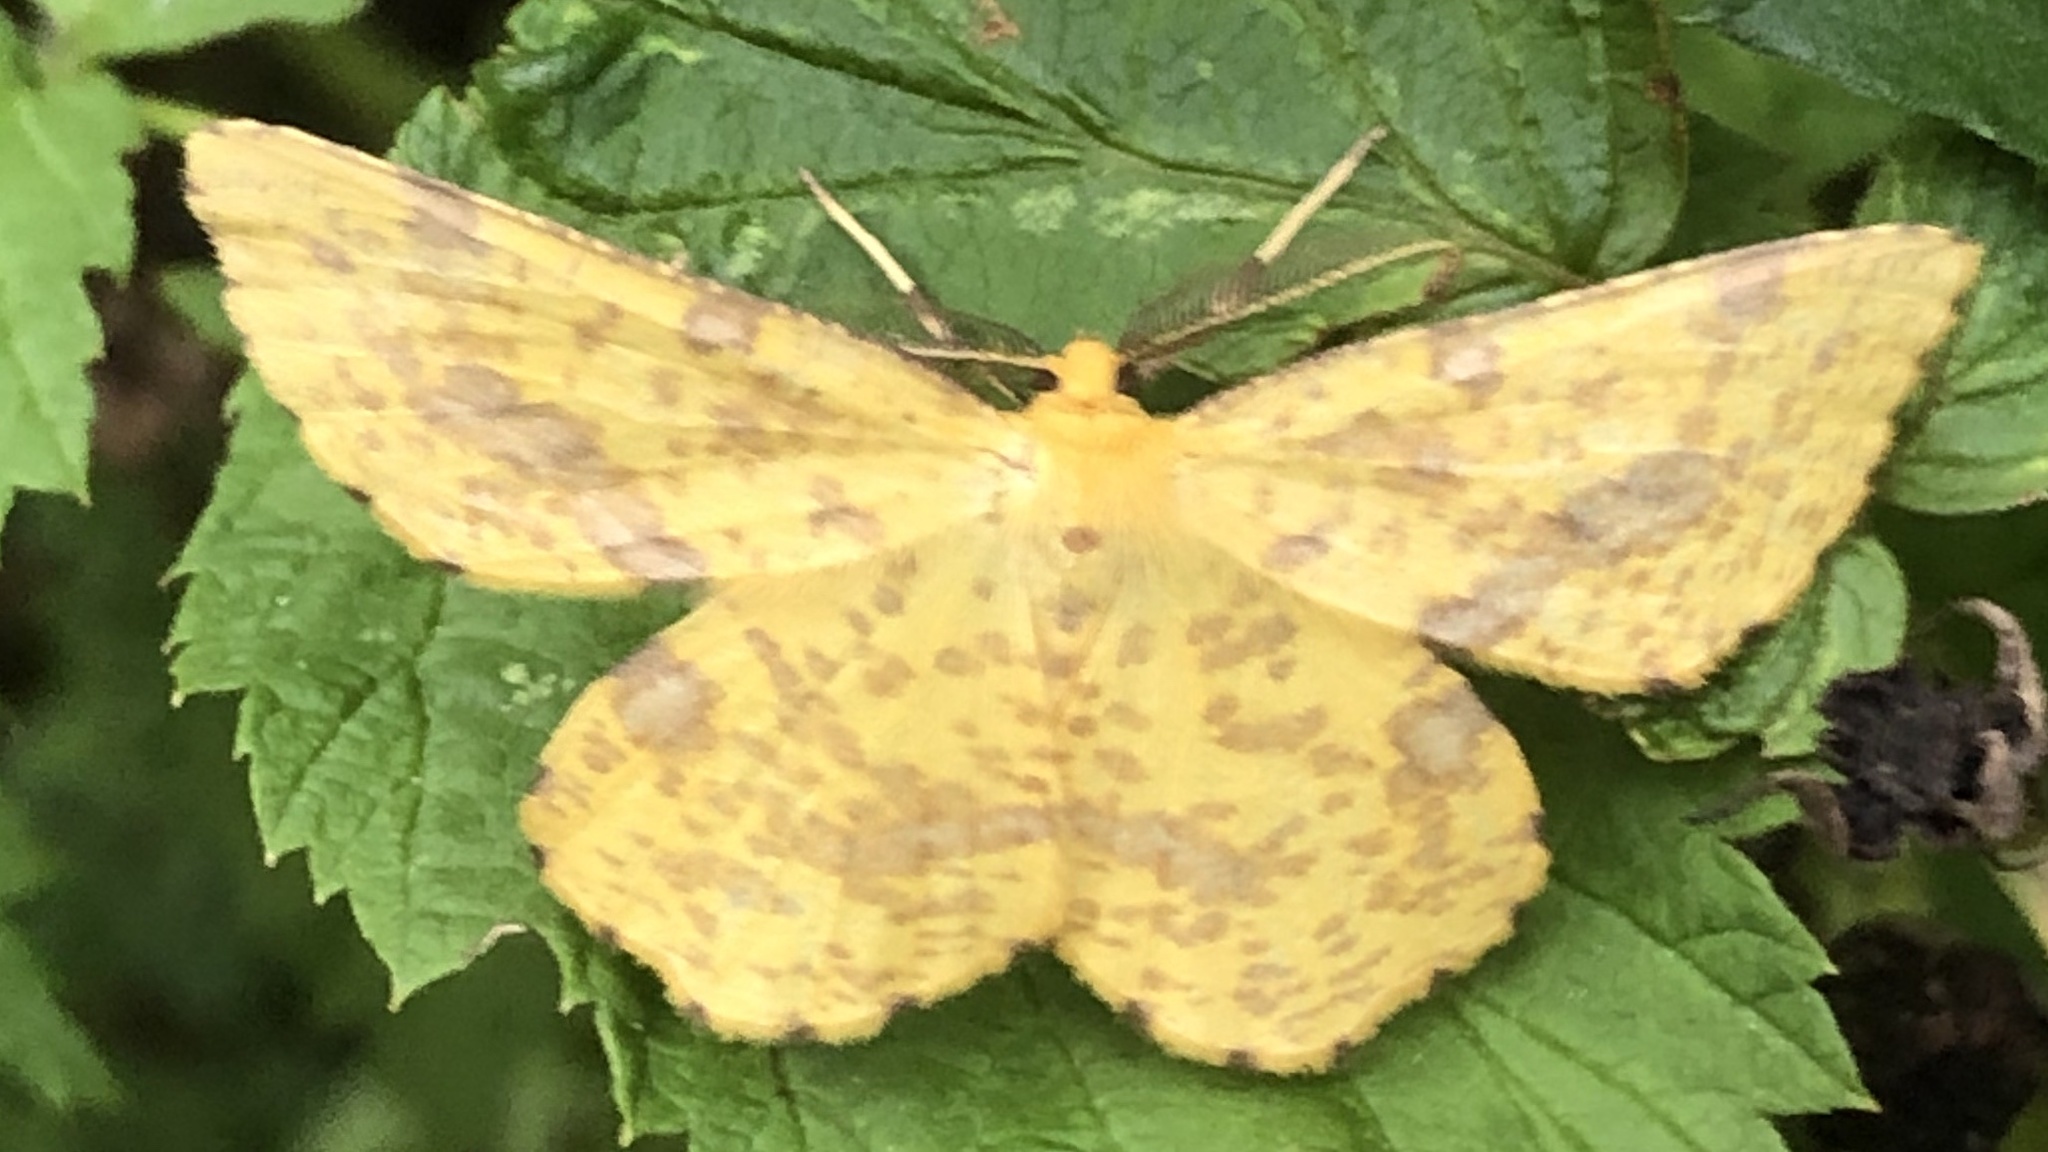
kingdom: Animalia
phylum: Arthropoda
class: Insecta
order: Lepidoptera
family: Geometridae
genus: Xanthotype
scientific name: Xanthotype
